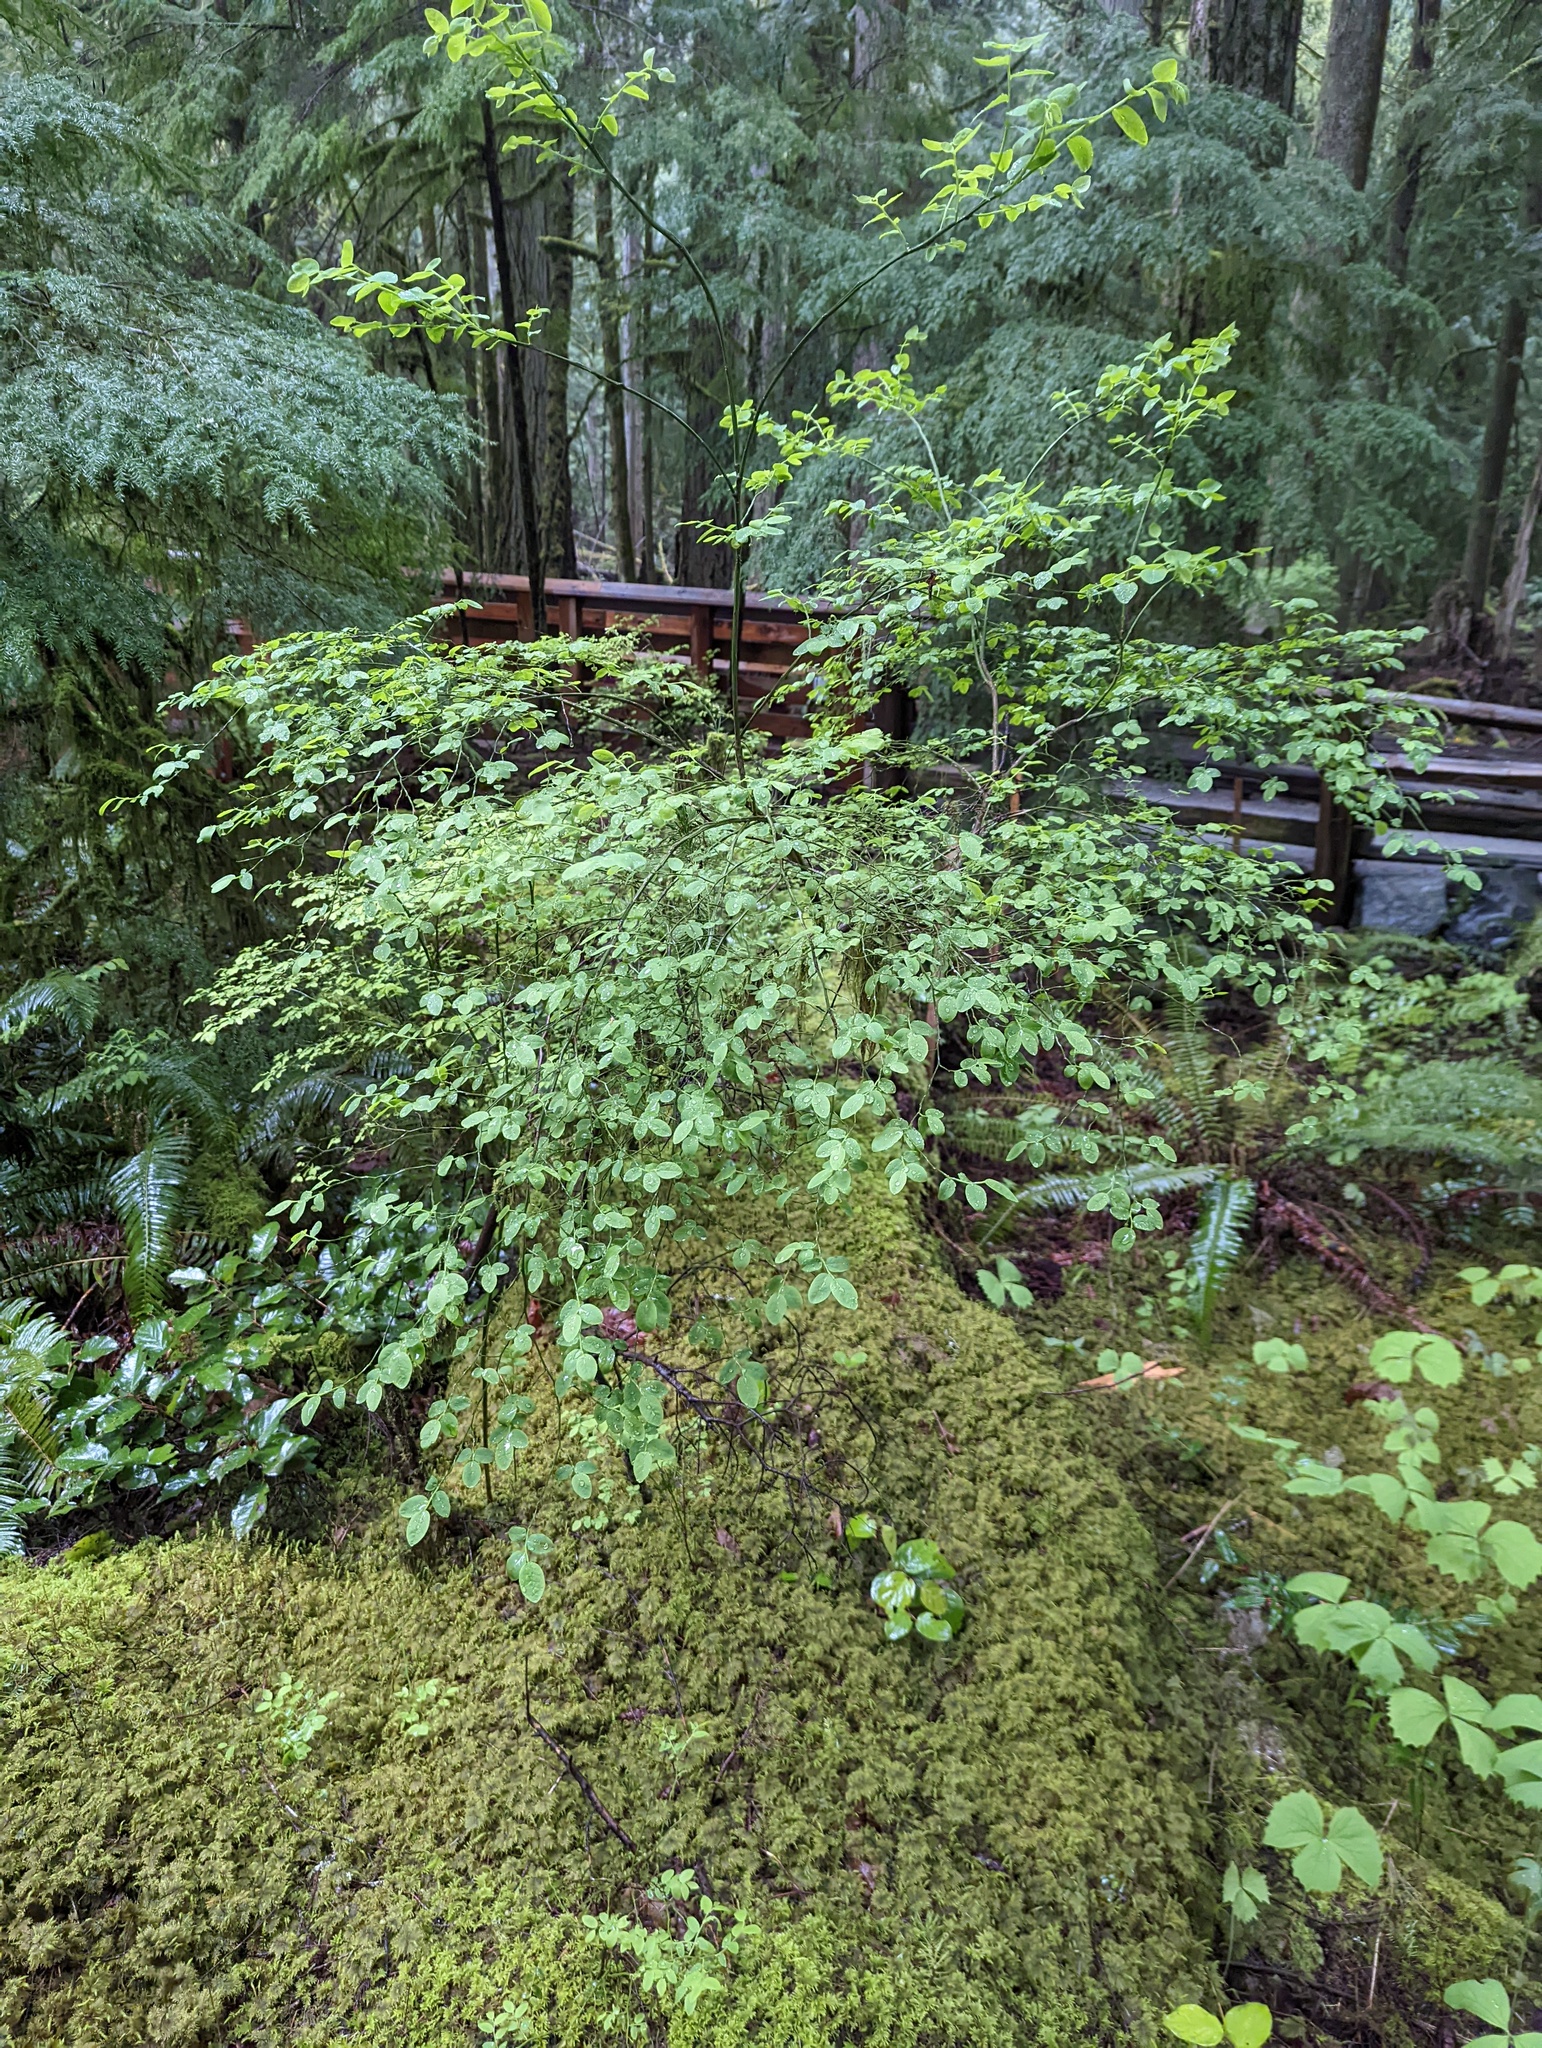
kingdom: Plantae
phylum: Tracheophyta
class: Magnoliopsida
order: Ericales
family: Ericaceae
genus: Vaccinium
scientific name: Vaccinium parvifolium
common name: Red-huckleberry
